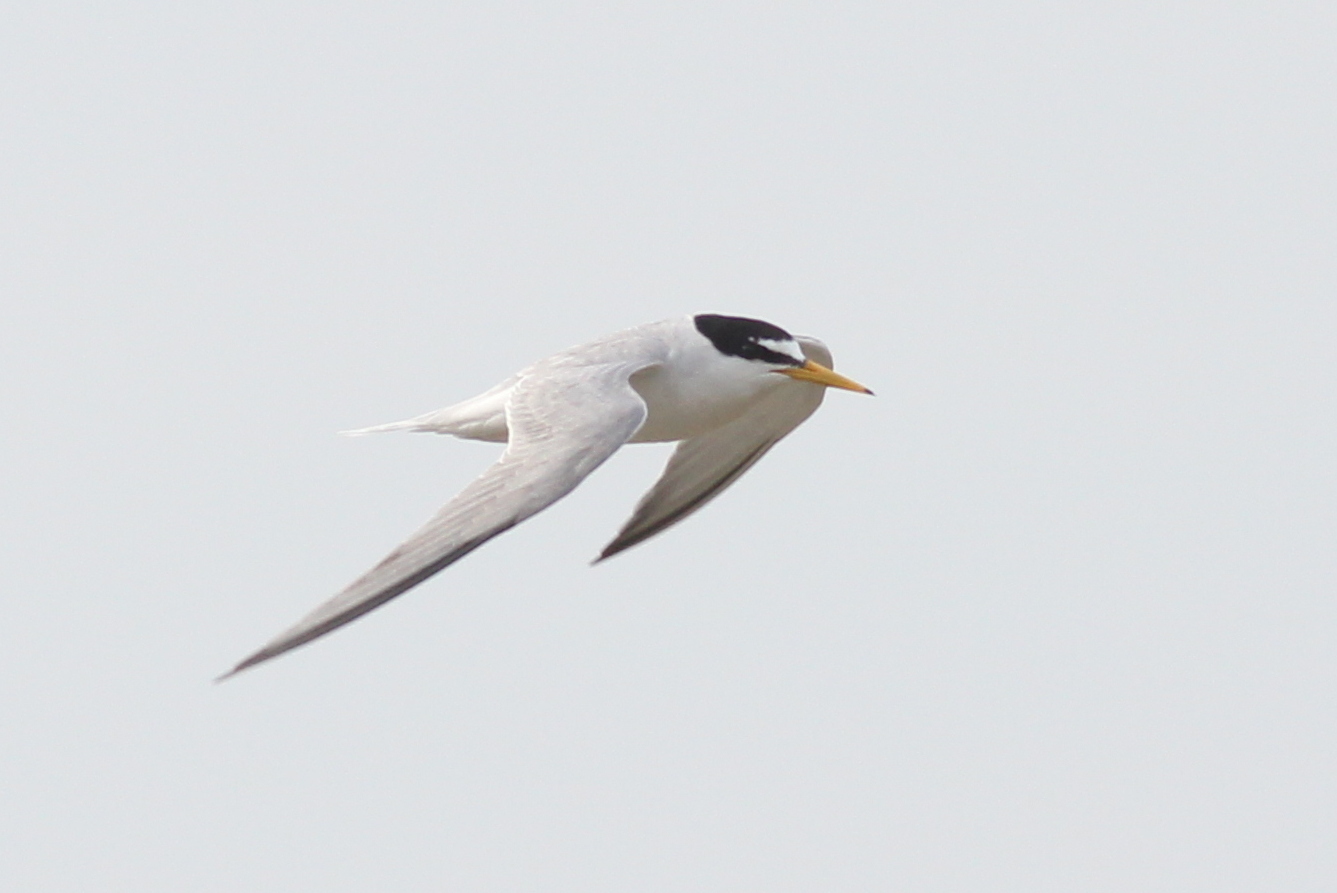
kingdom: Animalia
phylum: Chordata
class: Aves
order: Charadriiformes
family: Laridae
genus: Sternula
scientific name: Sternula albifrons
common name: Little tern
